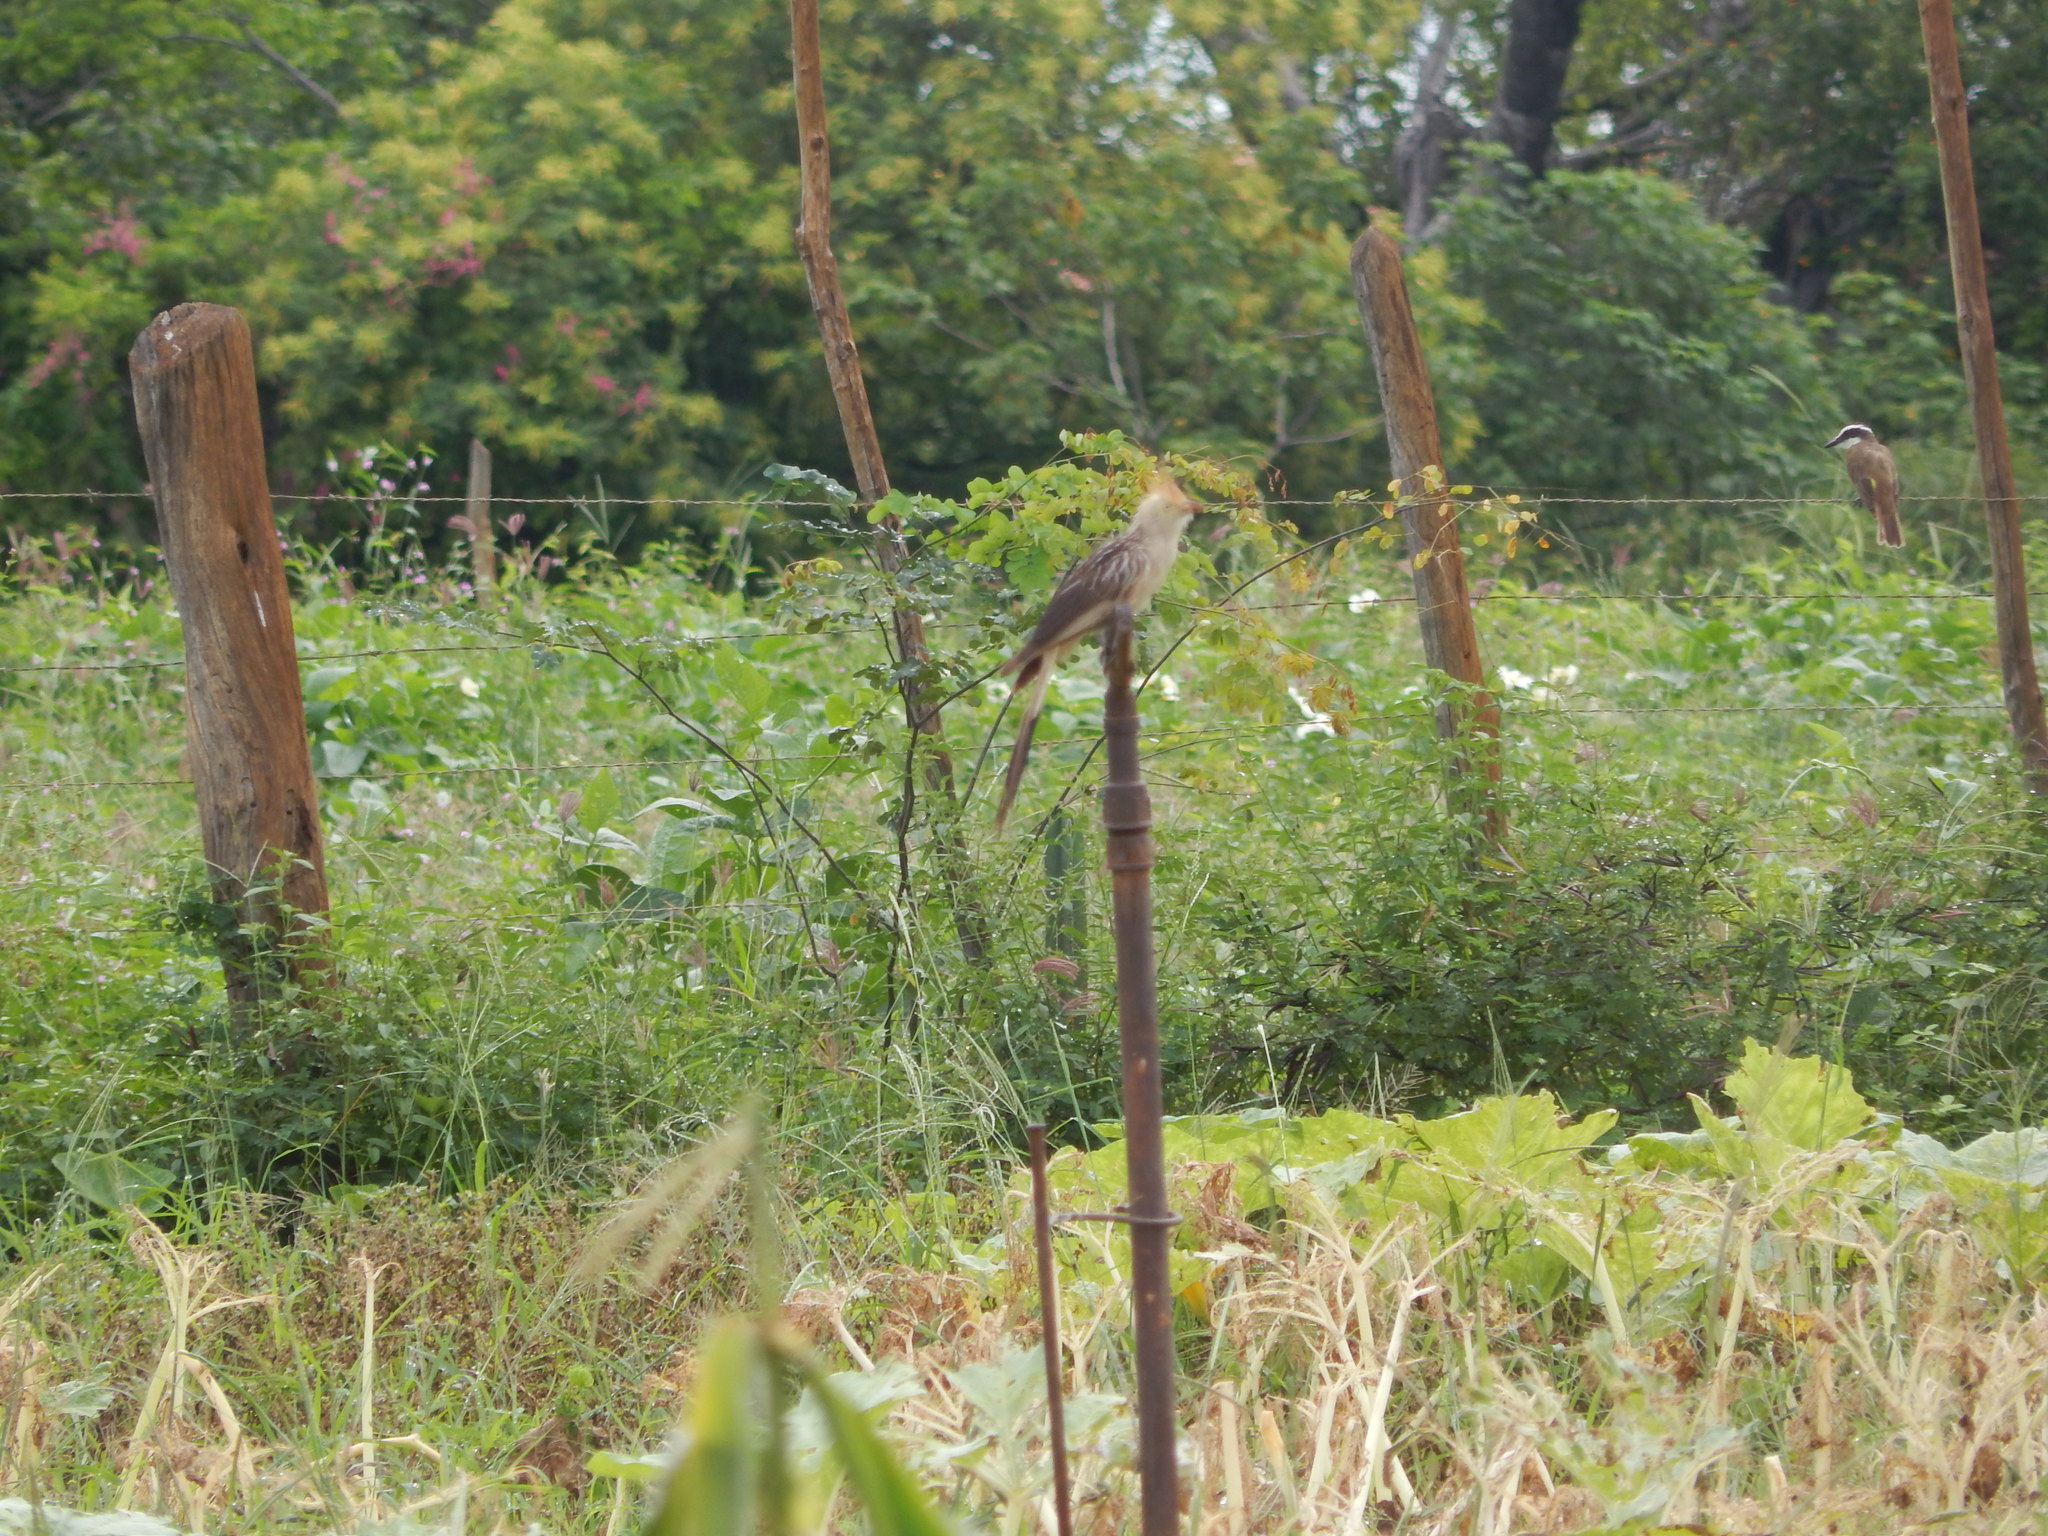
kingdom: Animalia
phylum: Chordata
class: Aves
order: Cuculiformes
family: Cuculidae
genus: Guira
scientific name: Guira guira
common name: Guira cuckoo
